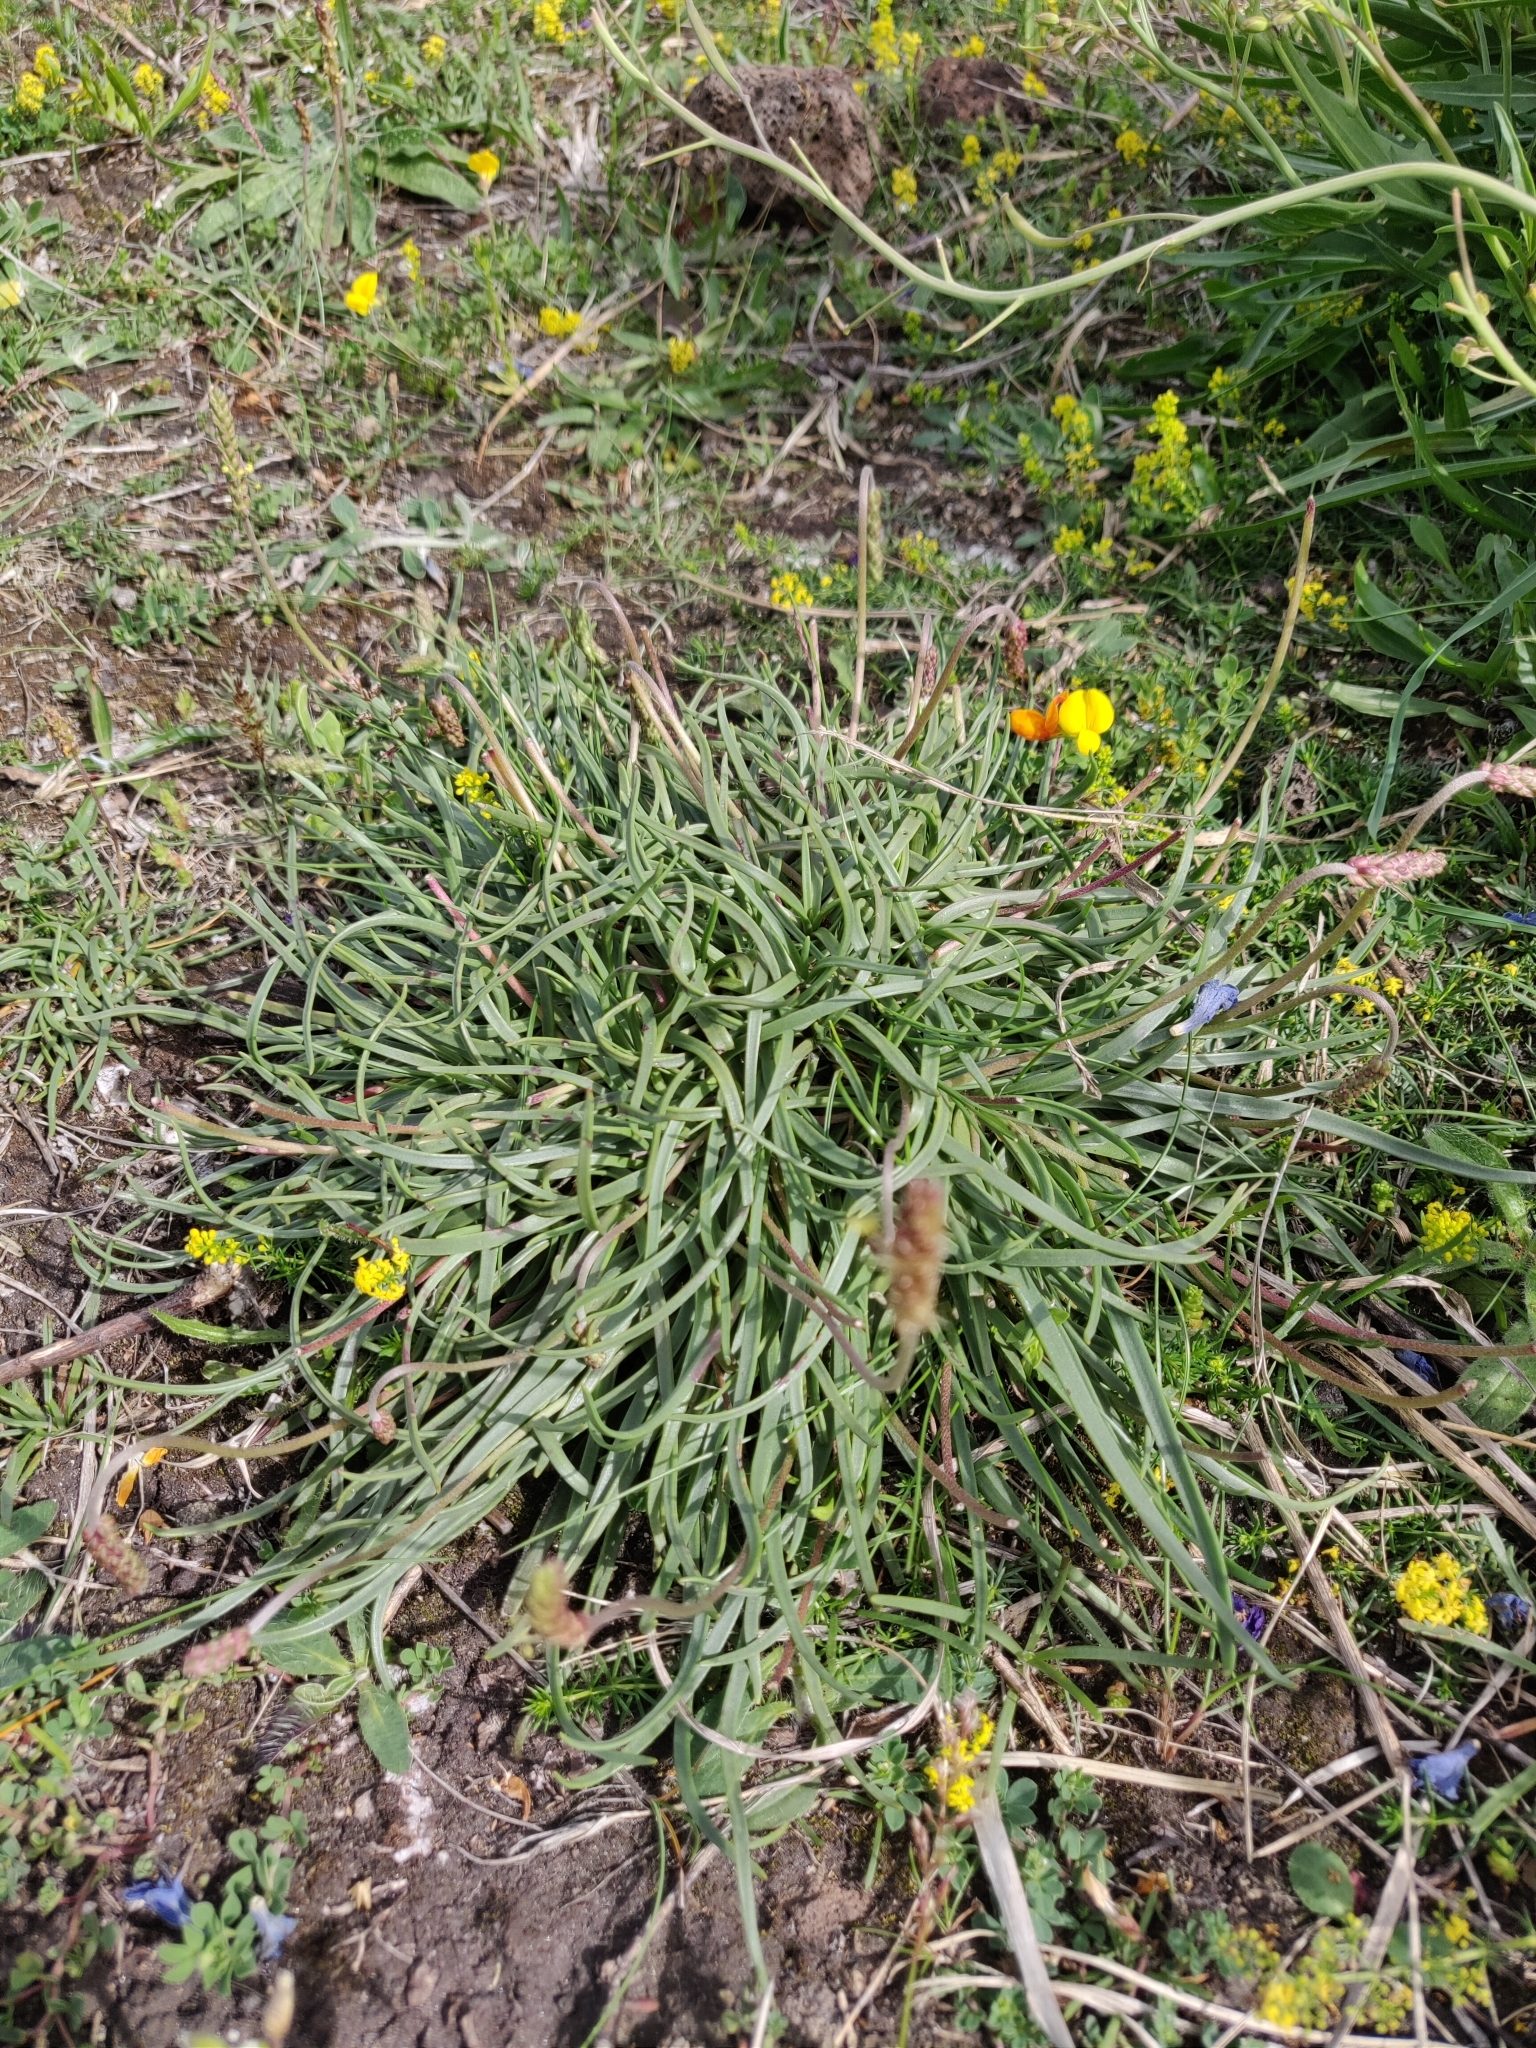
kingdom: Plantae
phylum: Tracheophyta
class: Magnoliopsida
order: Lamiales
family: Plantaginaceae
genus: Plantago
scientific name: Plantago maritima
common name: Sea plantain
